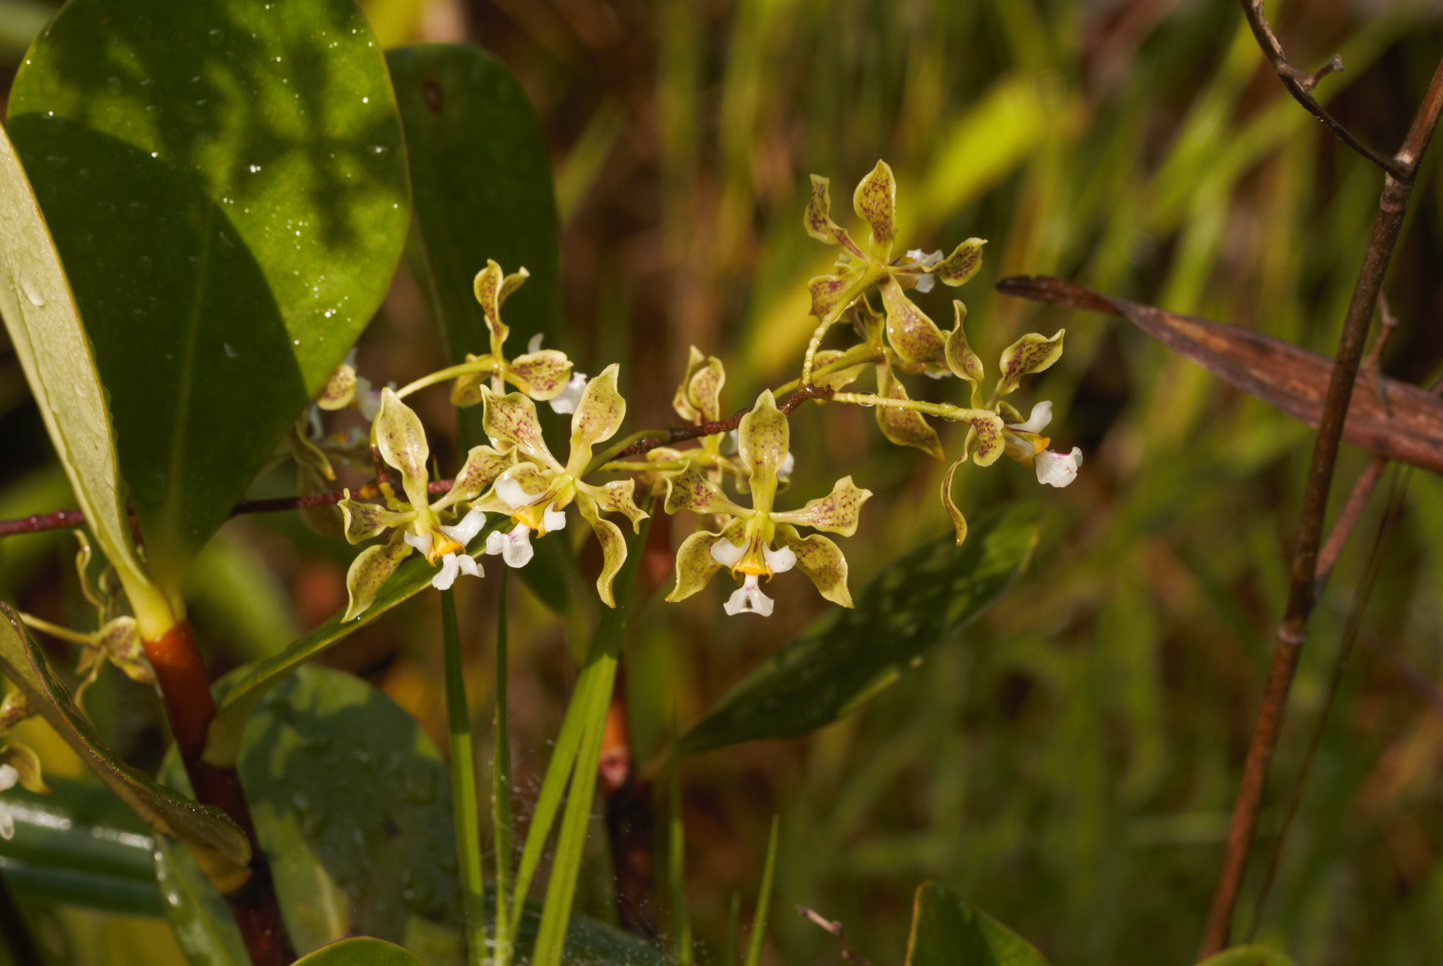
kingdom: Plantae
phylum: Tracheophyta
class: Liliopsida
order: Asparagales
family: Orchidaceae
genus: Encyclia
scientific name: Encyclia granitica
